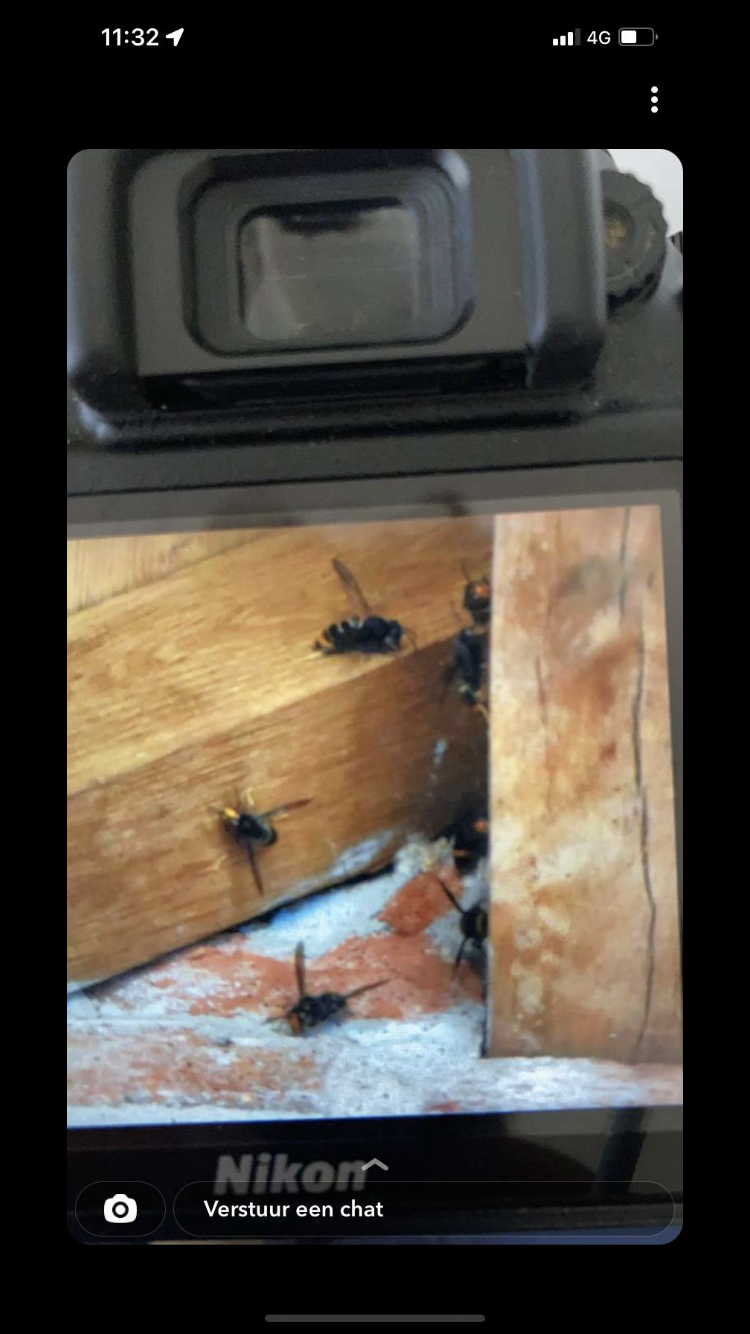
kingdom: Animalia
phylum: Arthropoda
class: Insecta
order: Hymenoptera
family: Vespidae
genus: Vespa
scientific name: Vespa velutina
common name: Asian hornet
